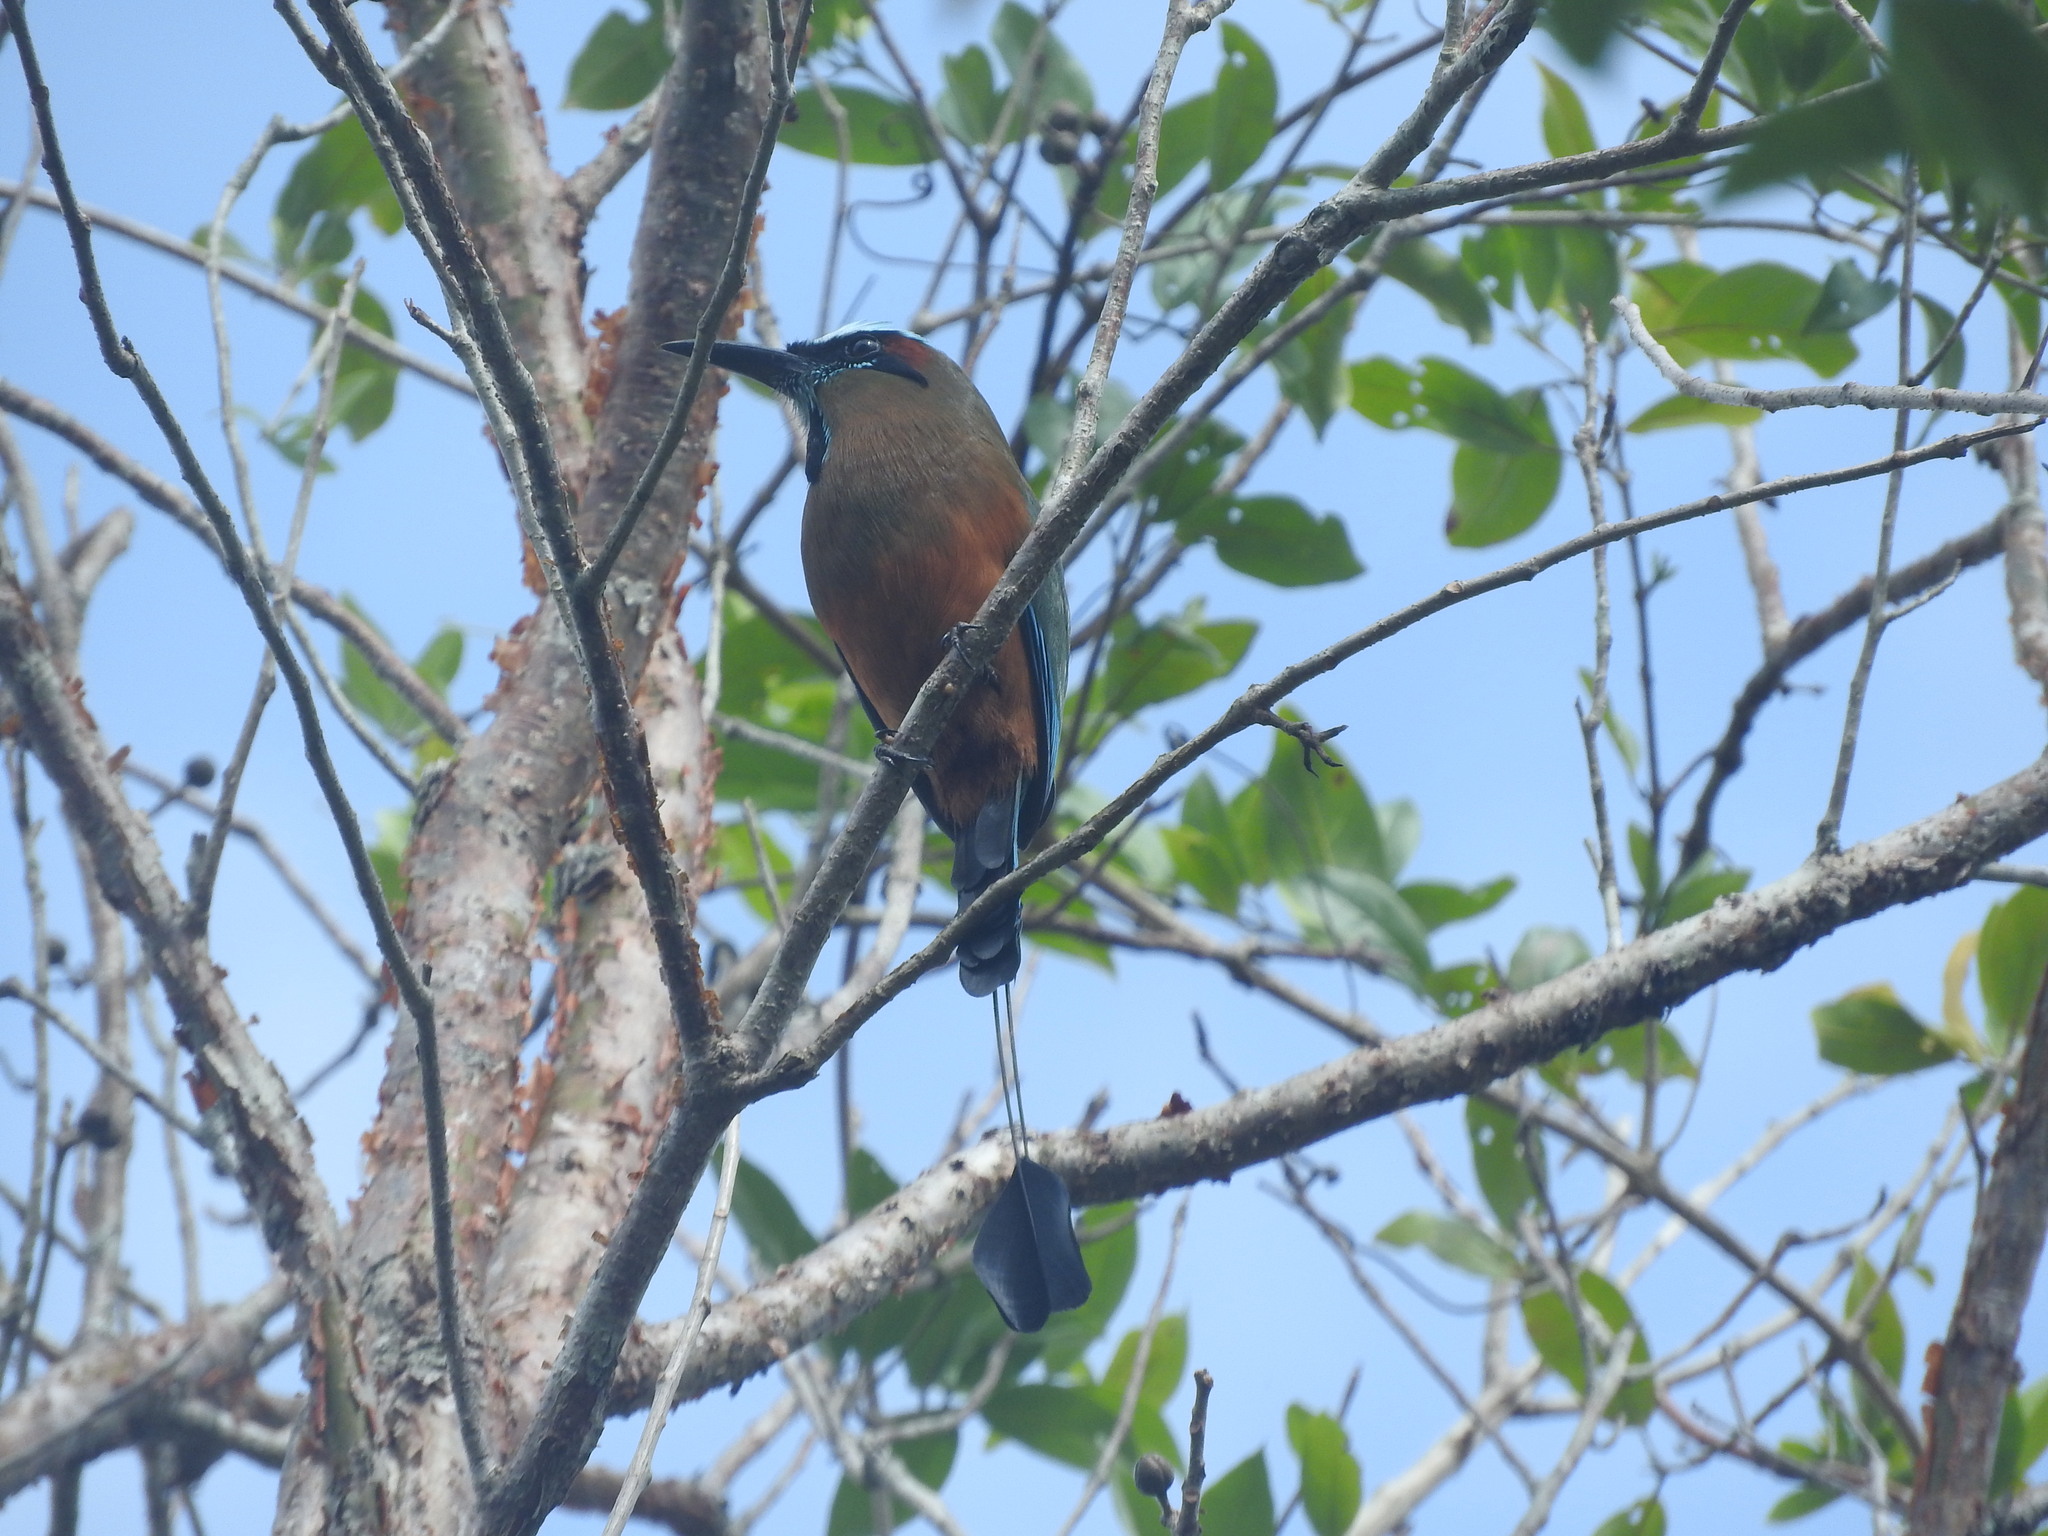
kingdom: Animalia
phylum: Chordata
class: Aves
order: Coraciiformes
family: Momotidae
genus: Eumomota
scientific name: Eumomota superciliosa
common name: Turquoise-browed motmot
